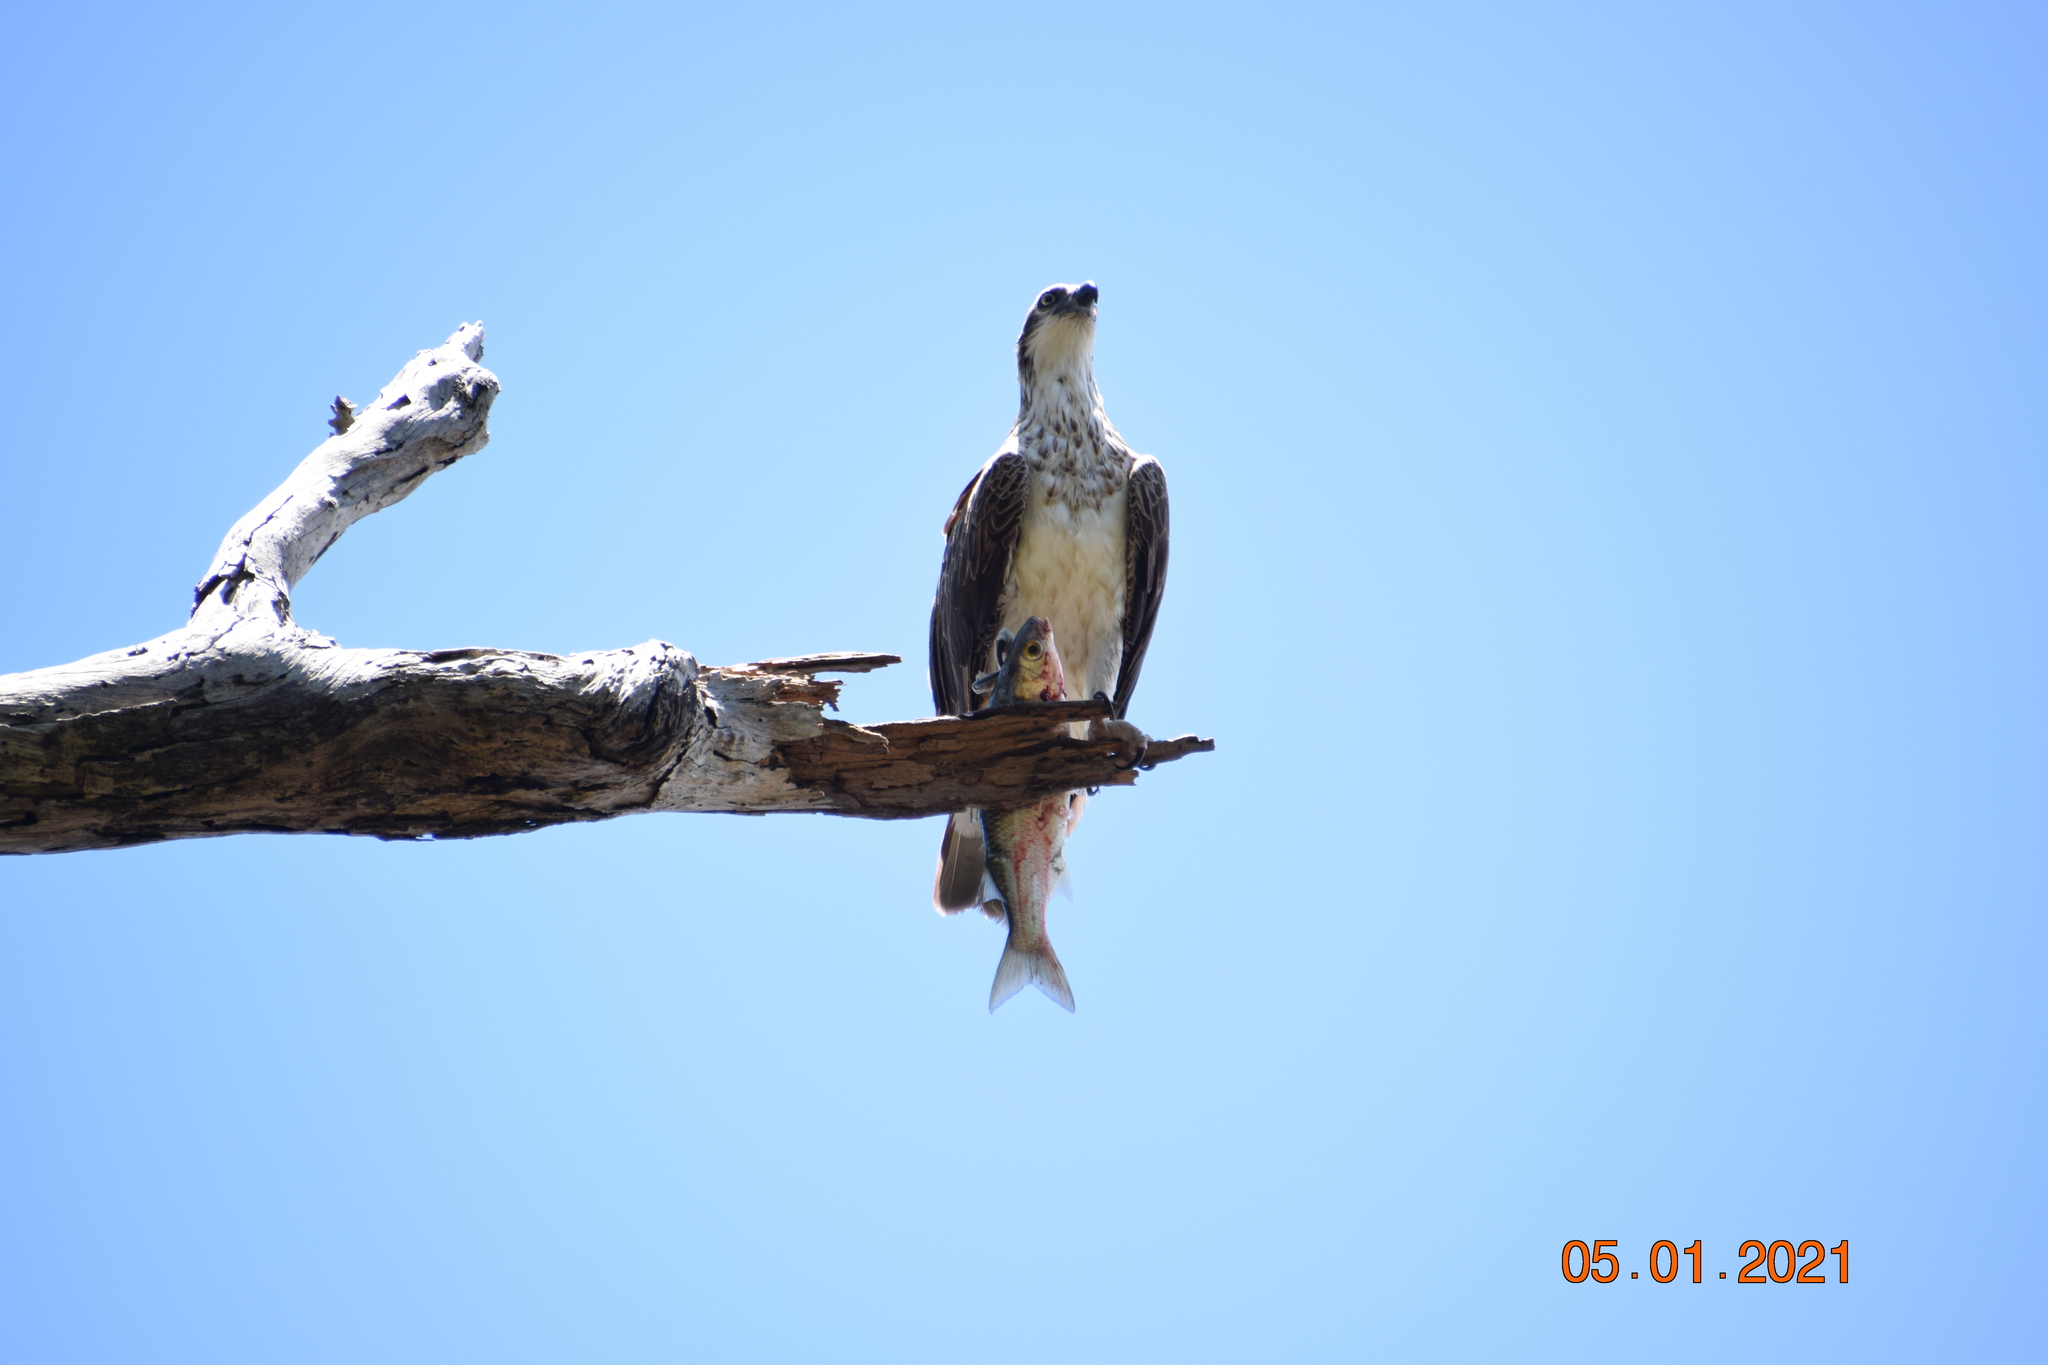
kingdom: Animalia
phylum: Chordata
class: Aves
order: Accipitriformes
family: Pandionidae
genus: Pandion
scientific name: Pandion haliaetus
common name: Osprey
